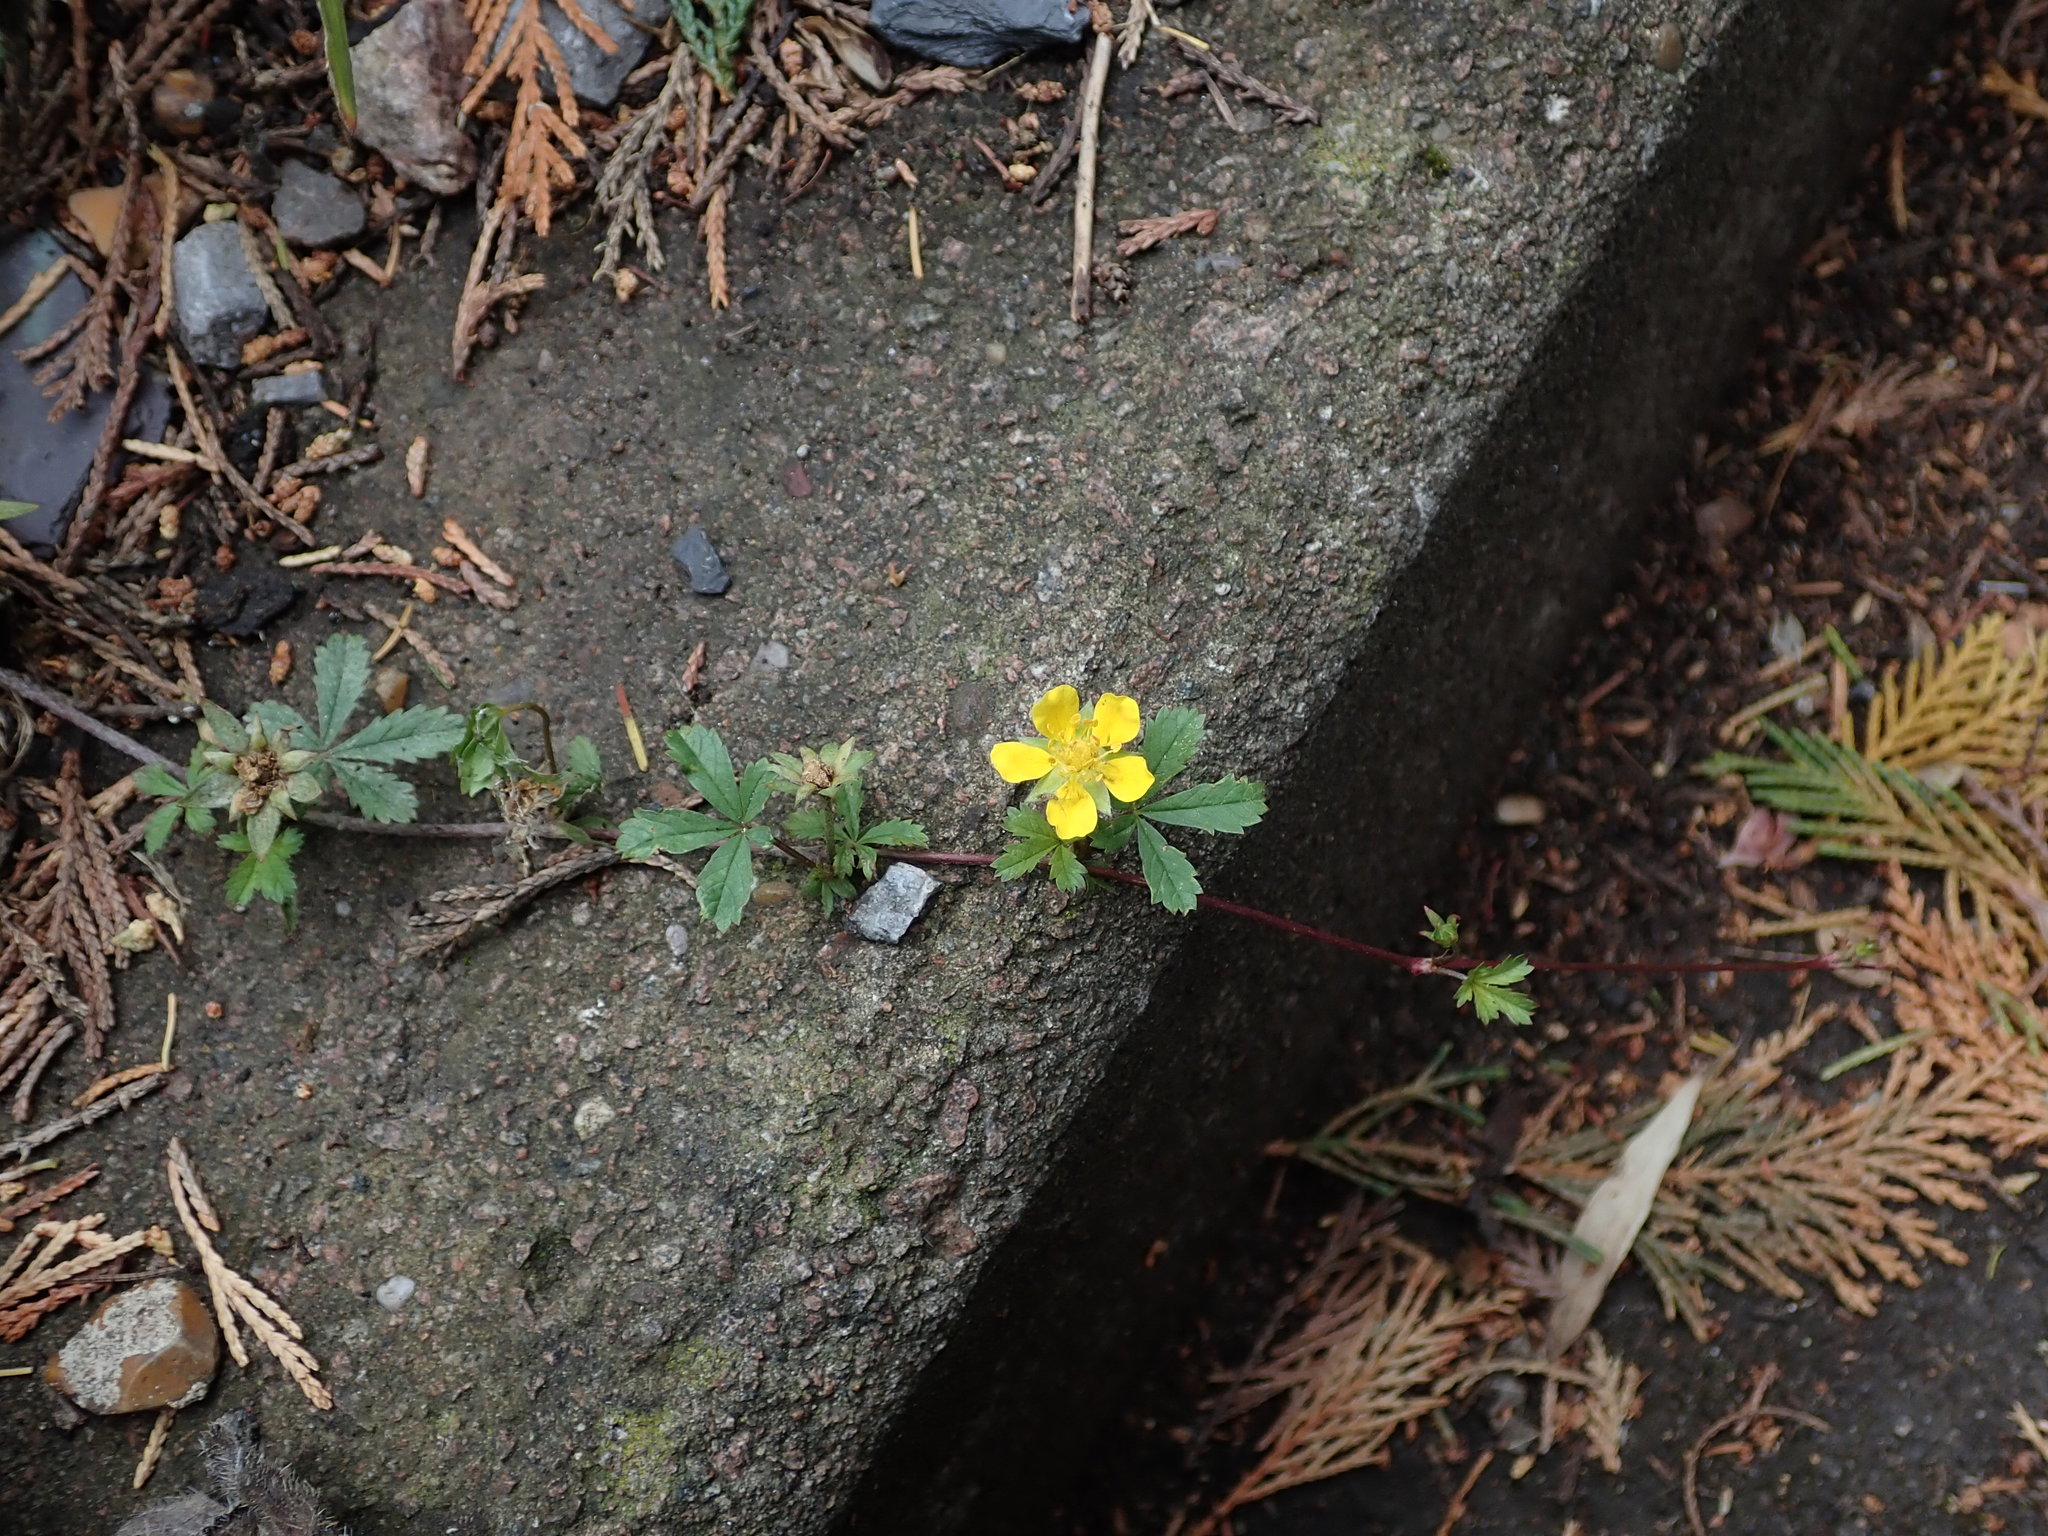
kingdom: Plantae
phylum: Tracheophyta
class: Magnoliopsida
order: Rosales
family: Rosaceae
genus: Potentilla
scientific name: Potentilla reptans
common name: Creeping cinquefoil
